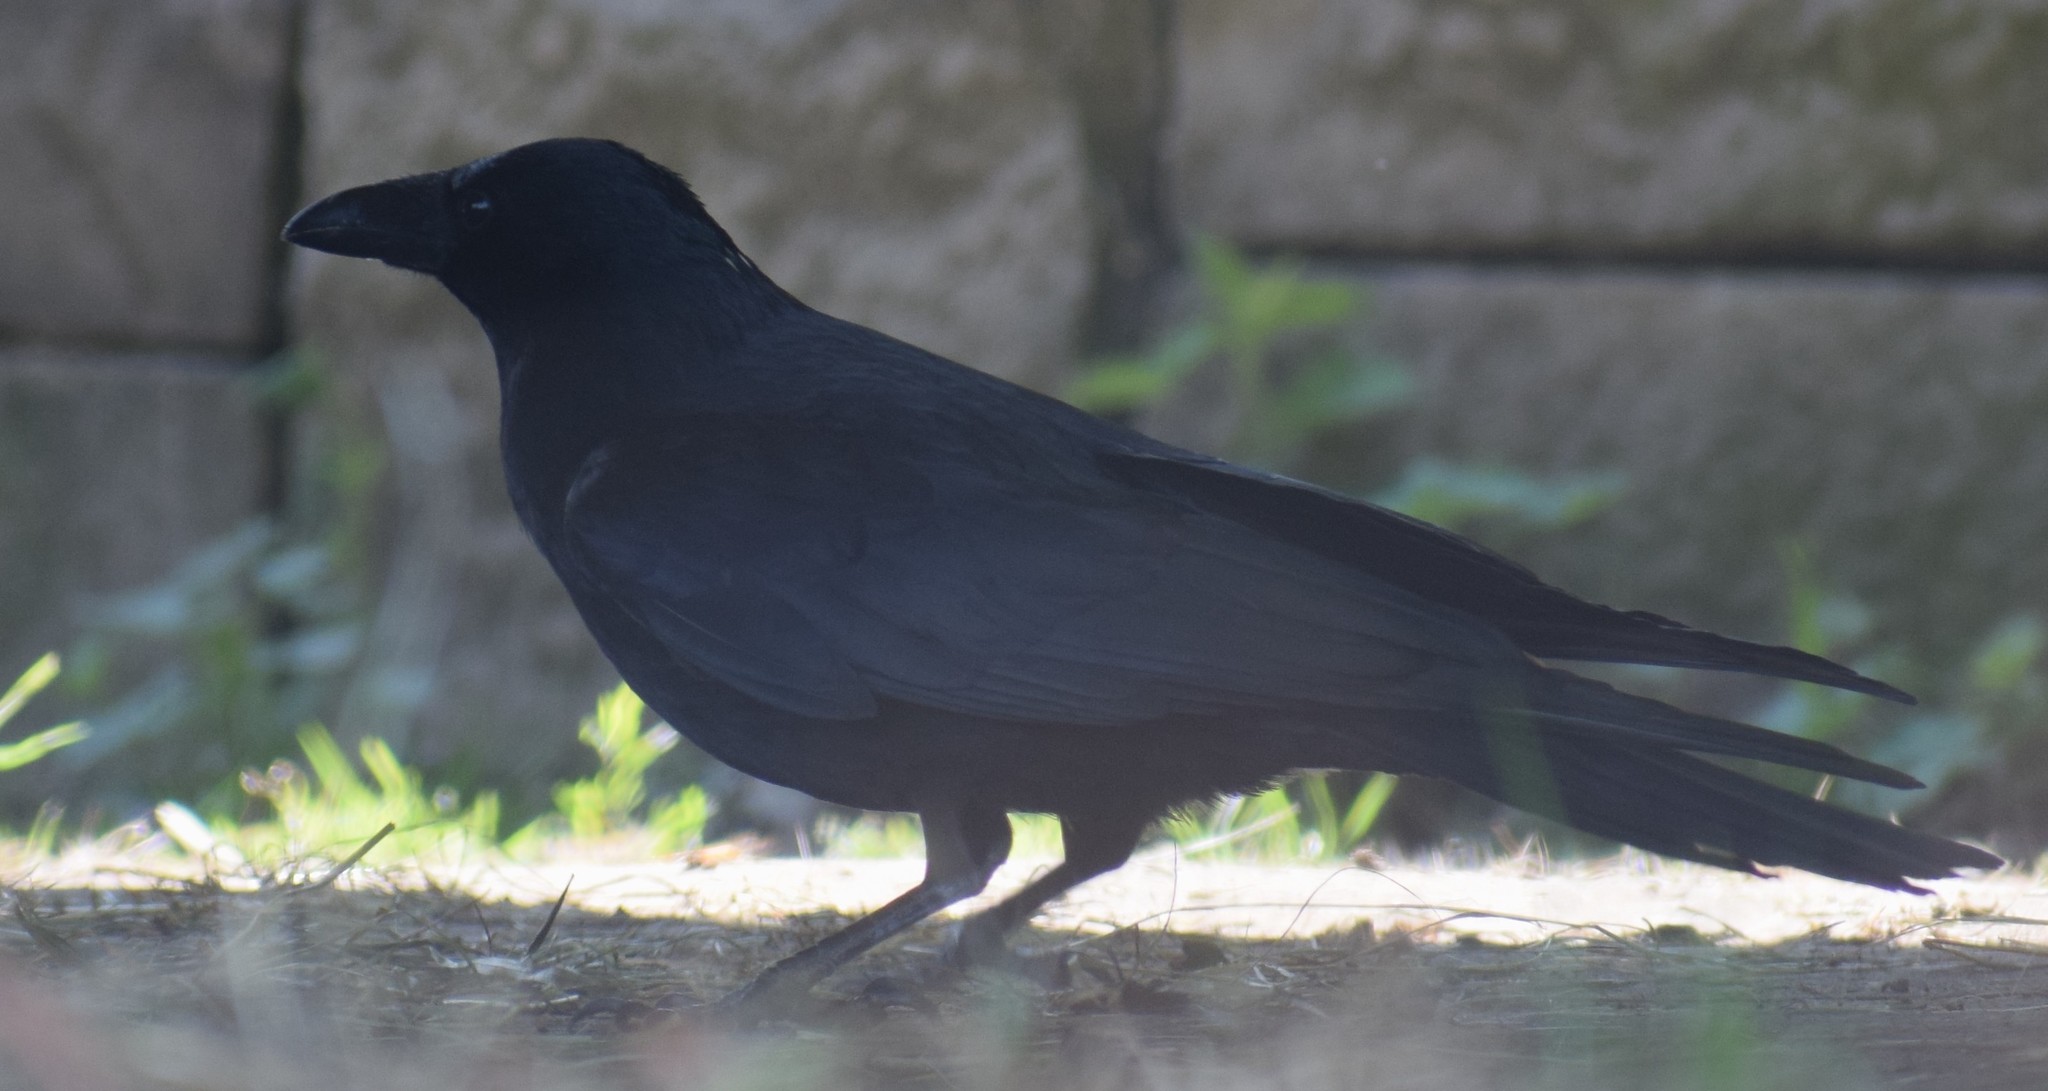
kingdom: Animalia
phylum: Chordata
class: Aves
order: Passeriformes
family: Corvidae
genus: Corvus
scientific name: Corvus corone
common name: Carrion crow
